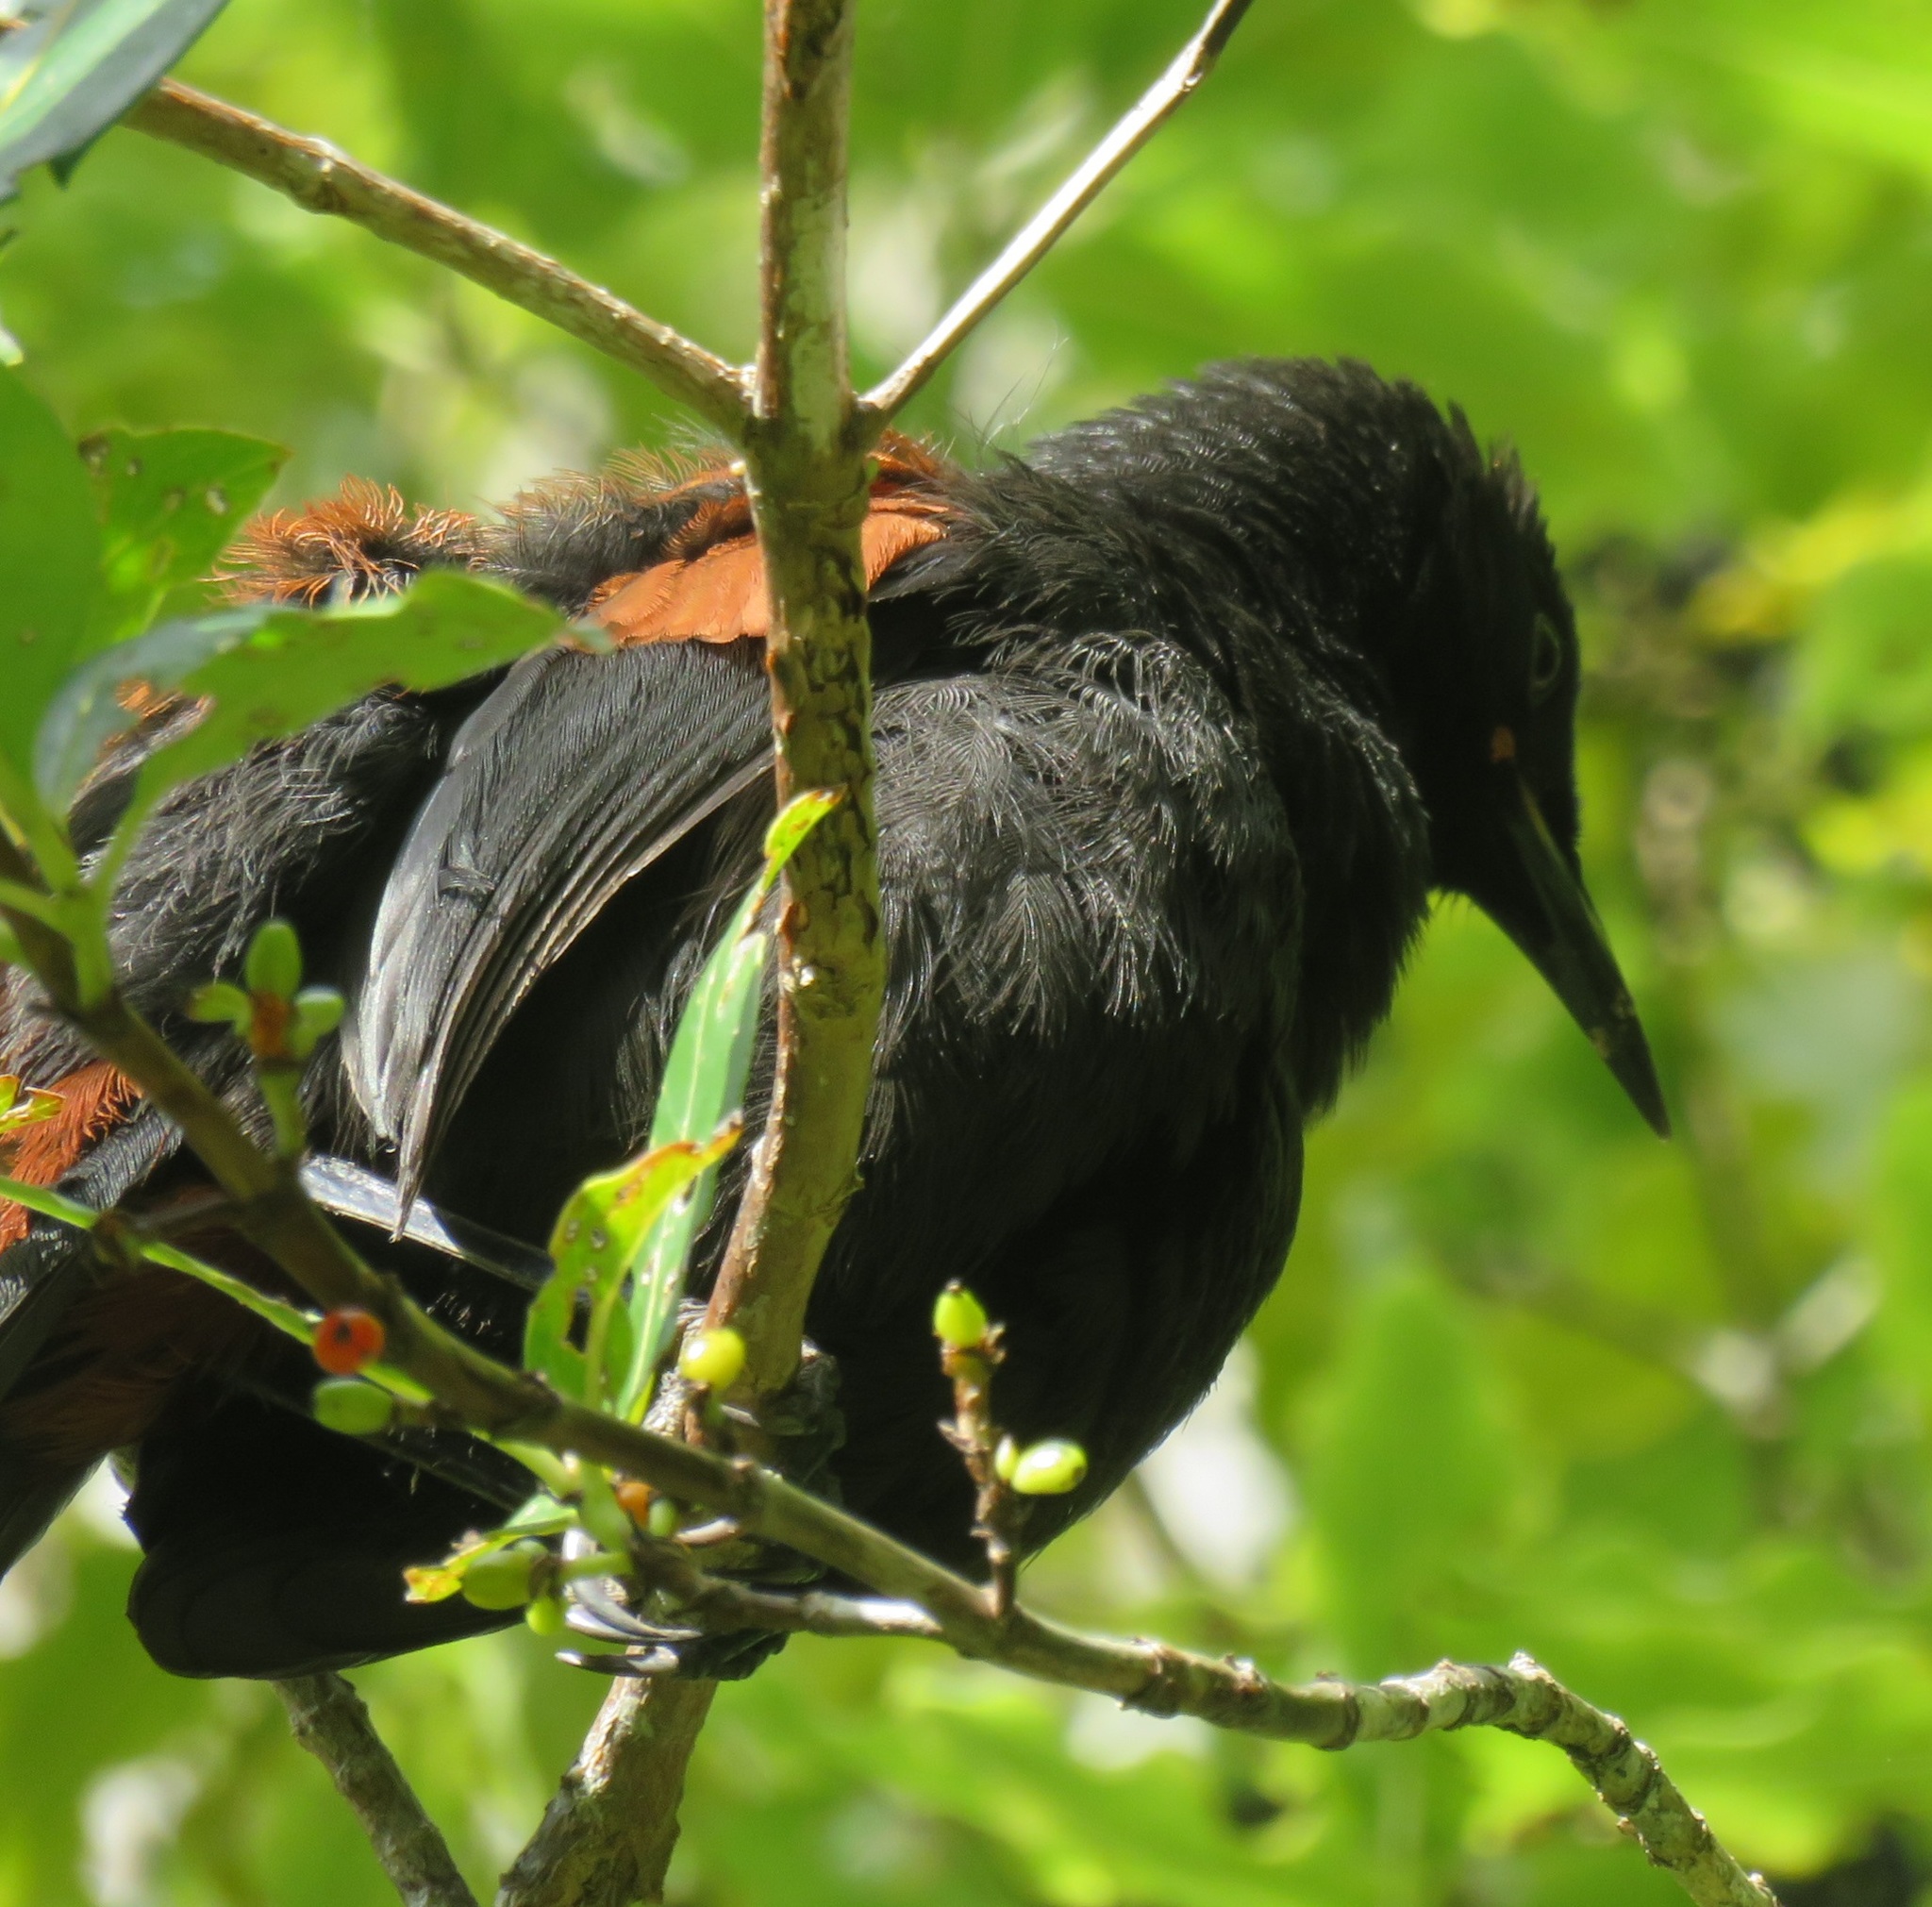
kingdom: Animalia
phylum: Chordata
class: Aves
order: Passeriformes
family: Callaeatidae
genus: Philesturnus
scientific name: Philesturnus carunculatus
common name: South island saddleback
